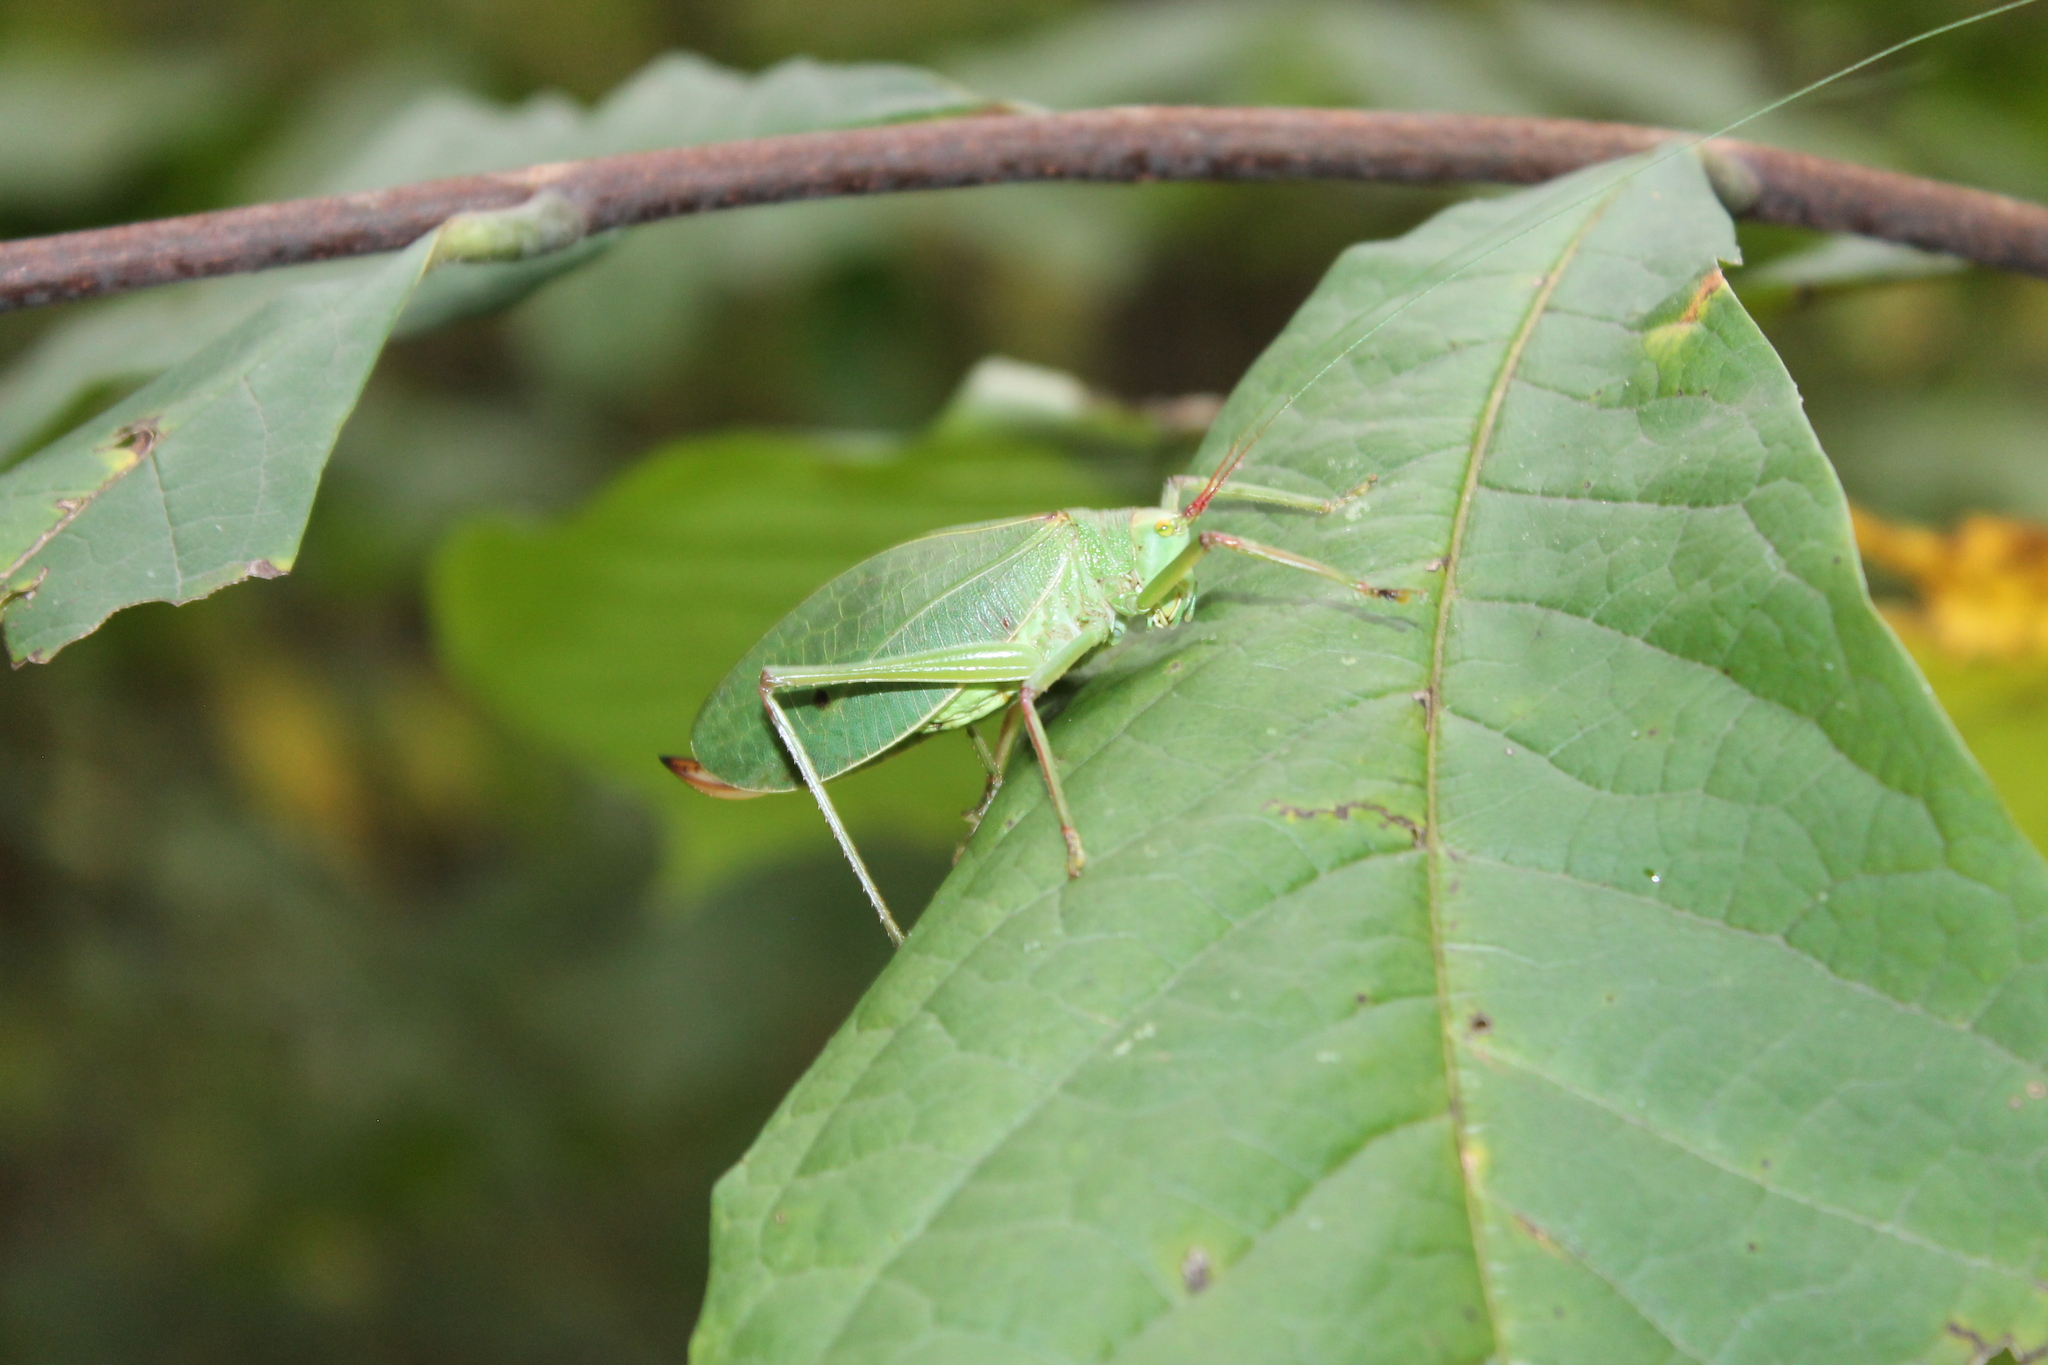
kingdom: Animalia
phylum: Arthropoda
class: Insecta
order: Orthoptera
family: Tettigoniidae
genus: Pterophylla
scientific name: Pterophylla camellifolia
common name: Common true katydid
